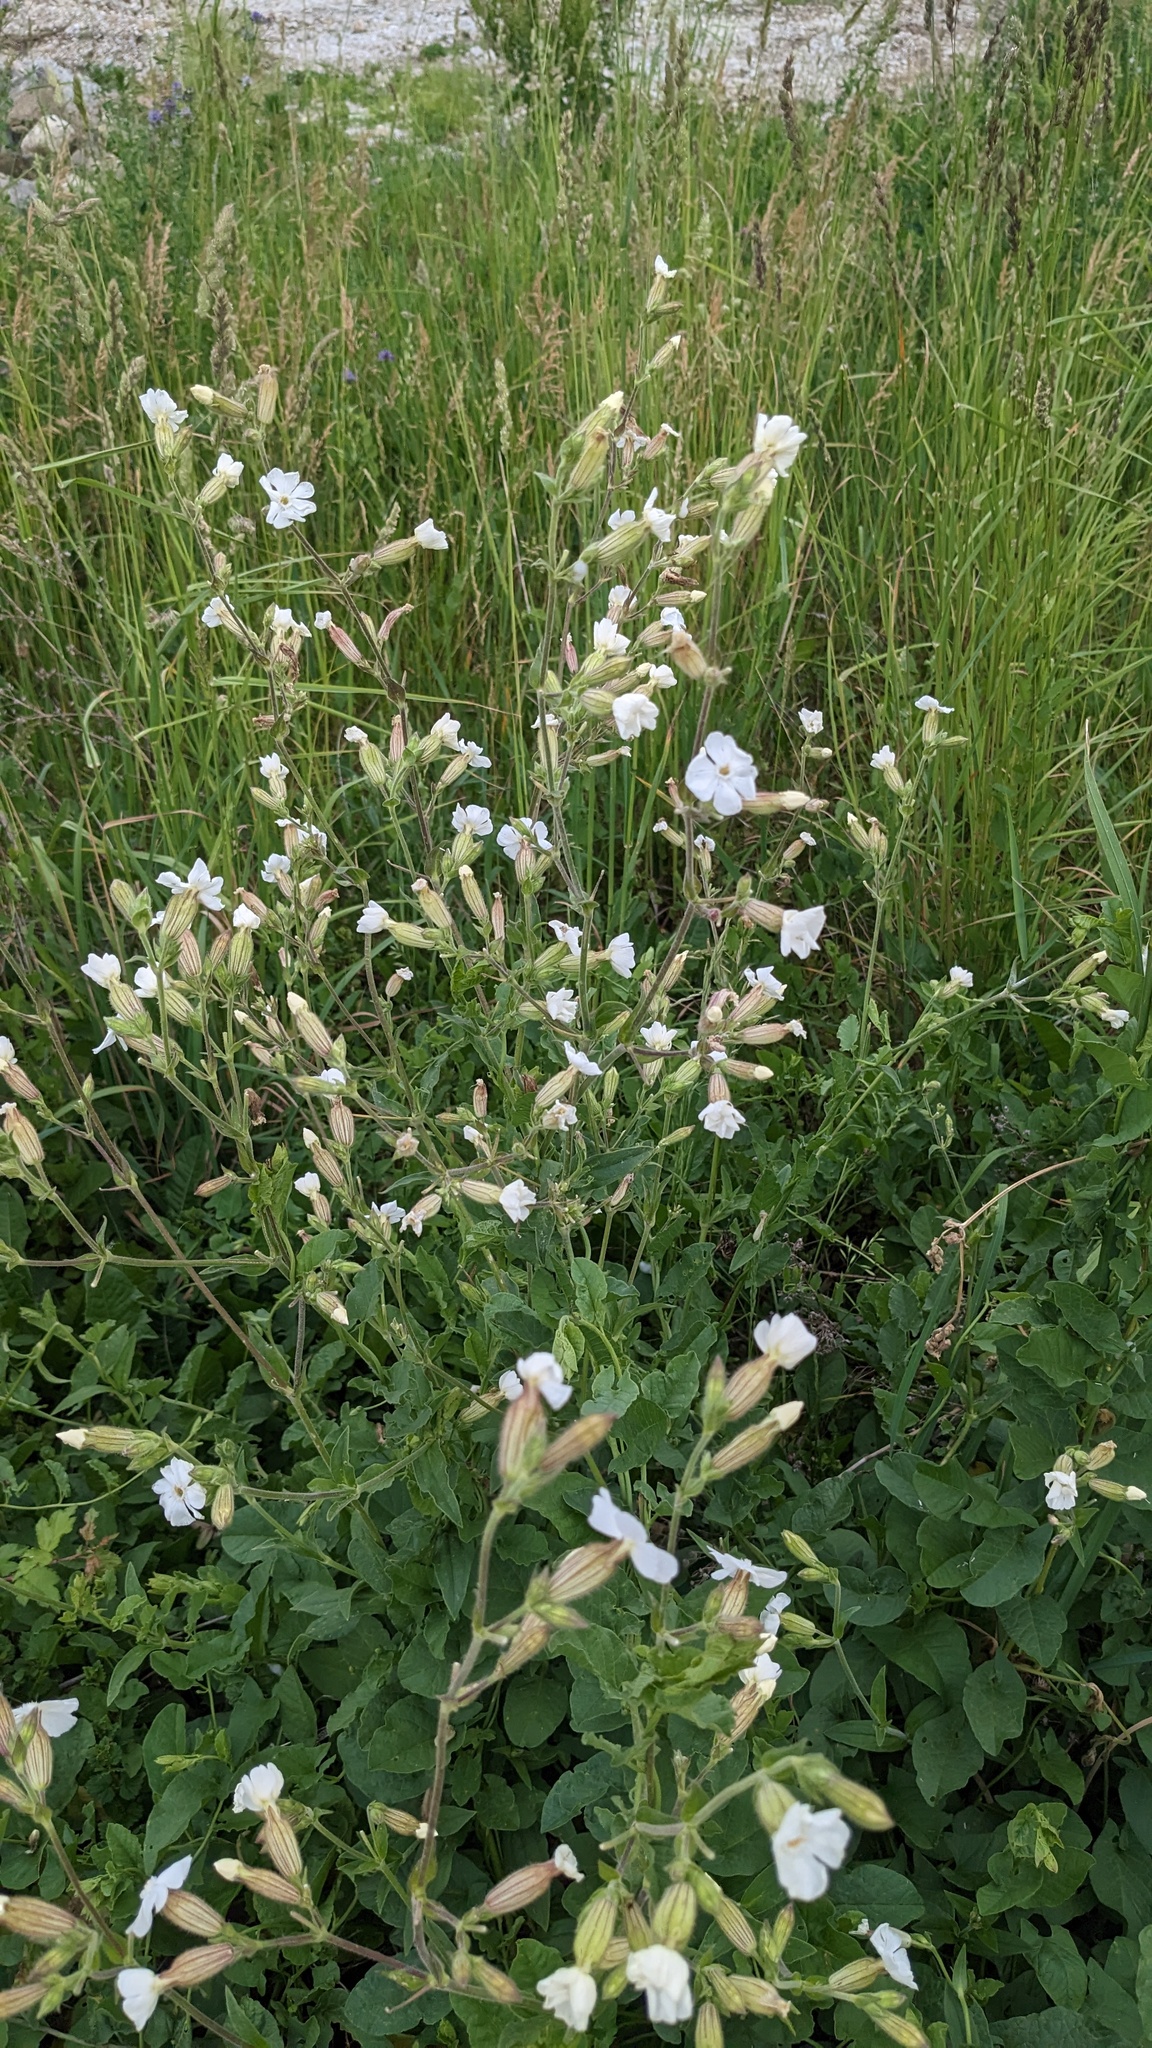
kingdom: Plantae
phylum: Tracheophyta
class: Magnoliopsida
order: Caryophyllales
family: Caryophyllaceae
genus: Silene
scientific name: Silene latifolia
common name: White campion
